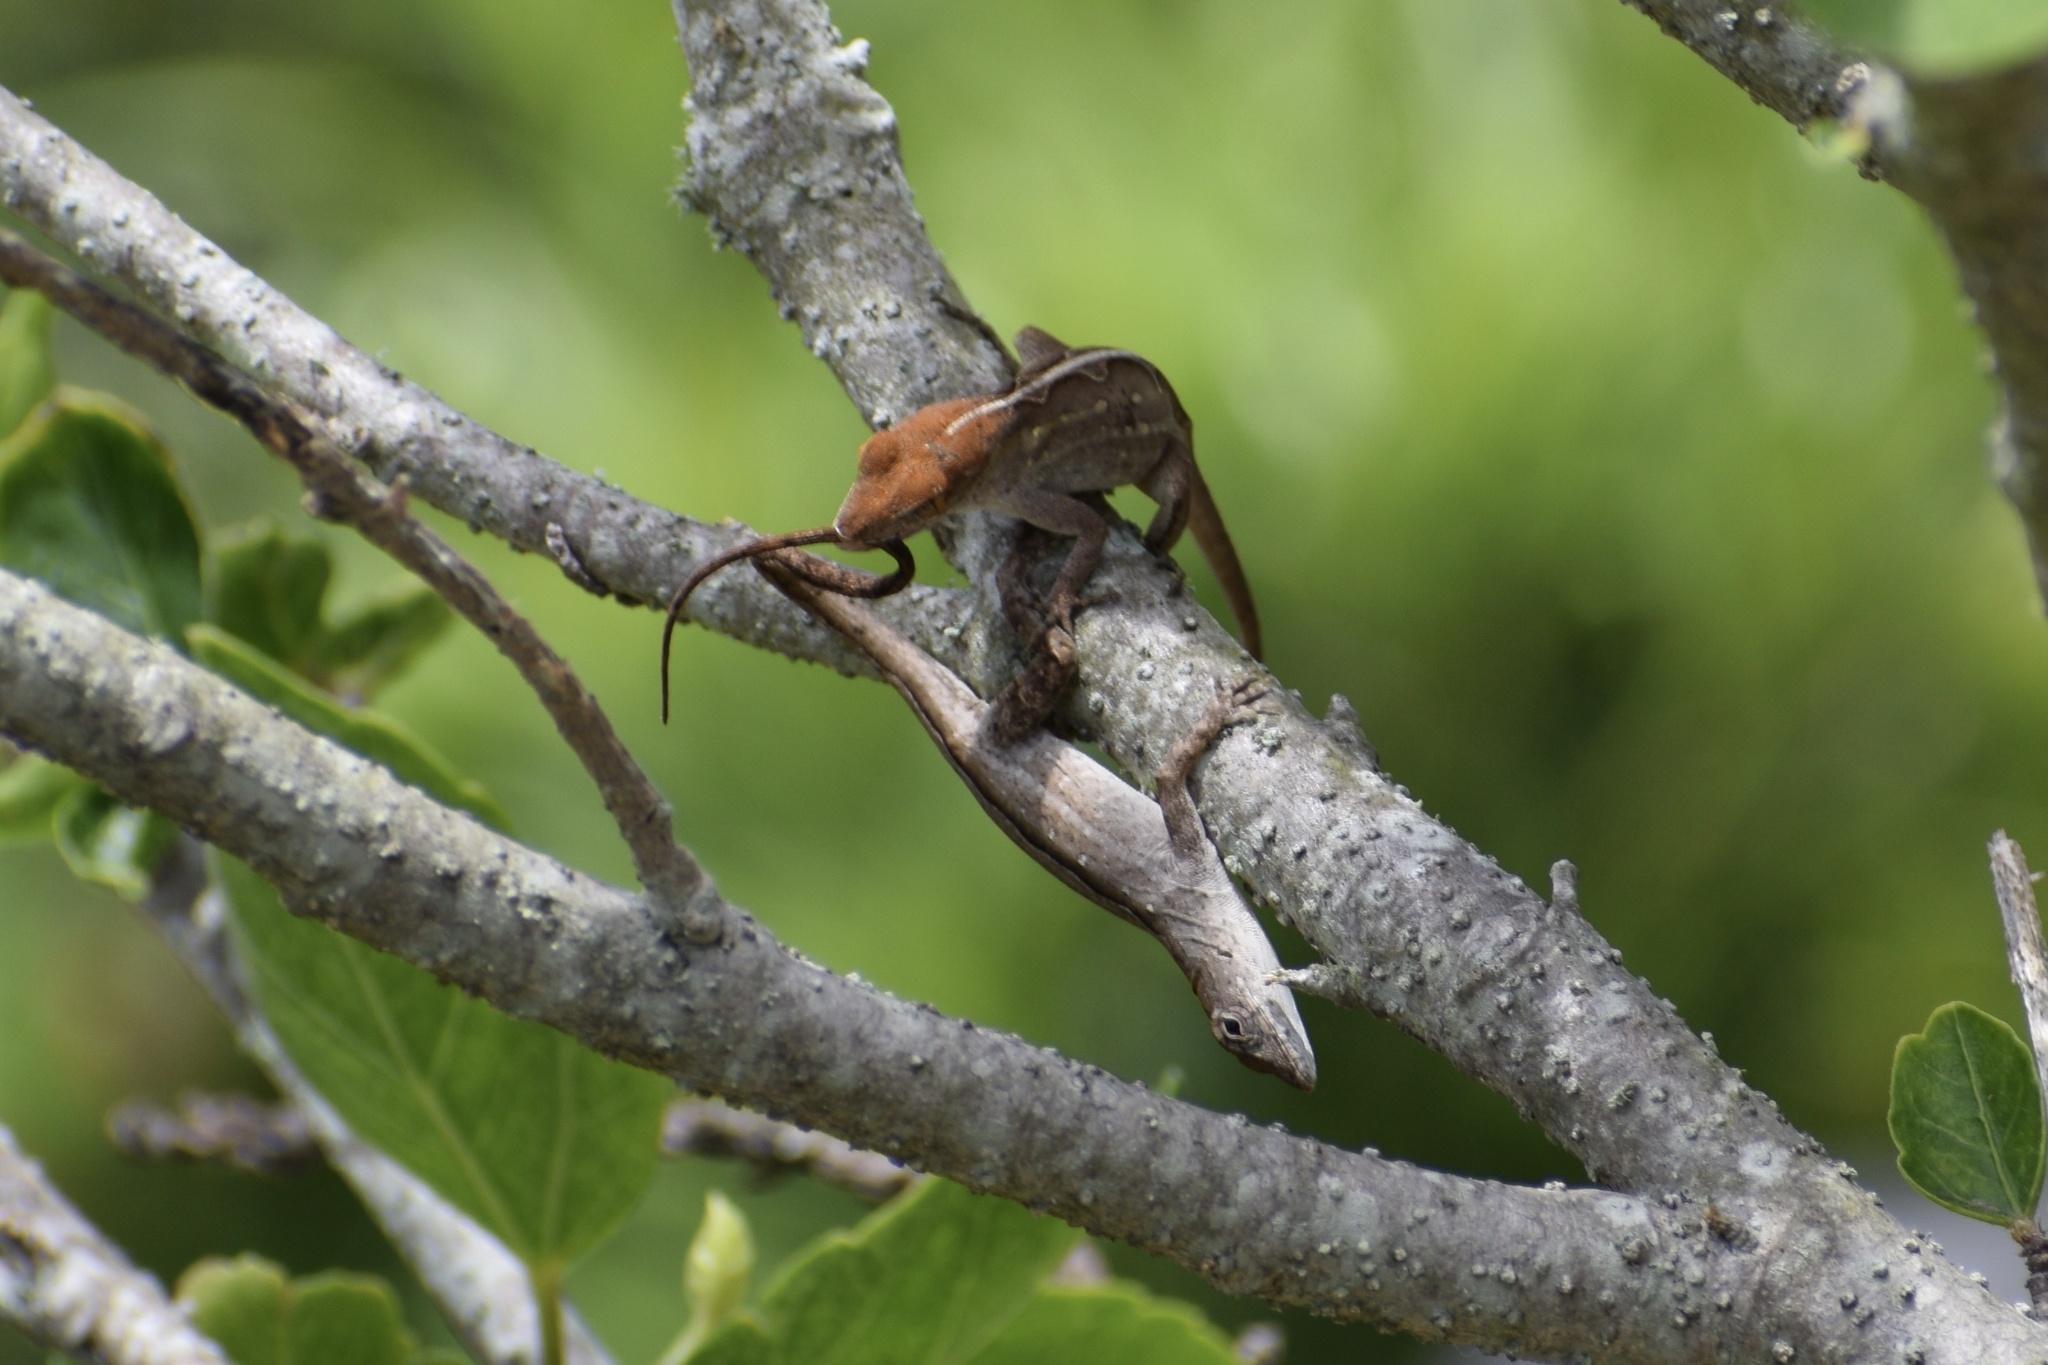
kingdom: Animalia
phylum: Chordata
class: Squamata
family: Dactyloidae
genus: Anolis
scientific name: Anolis sagrei
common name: Brown anole
